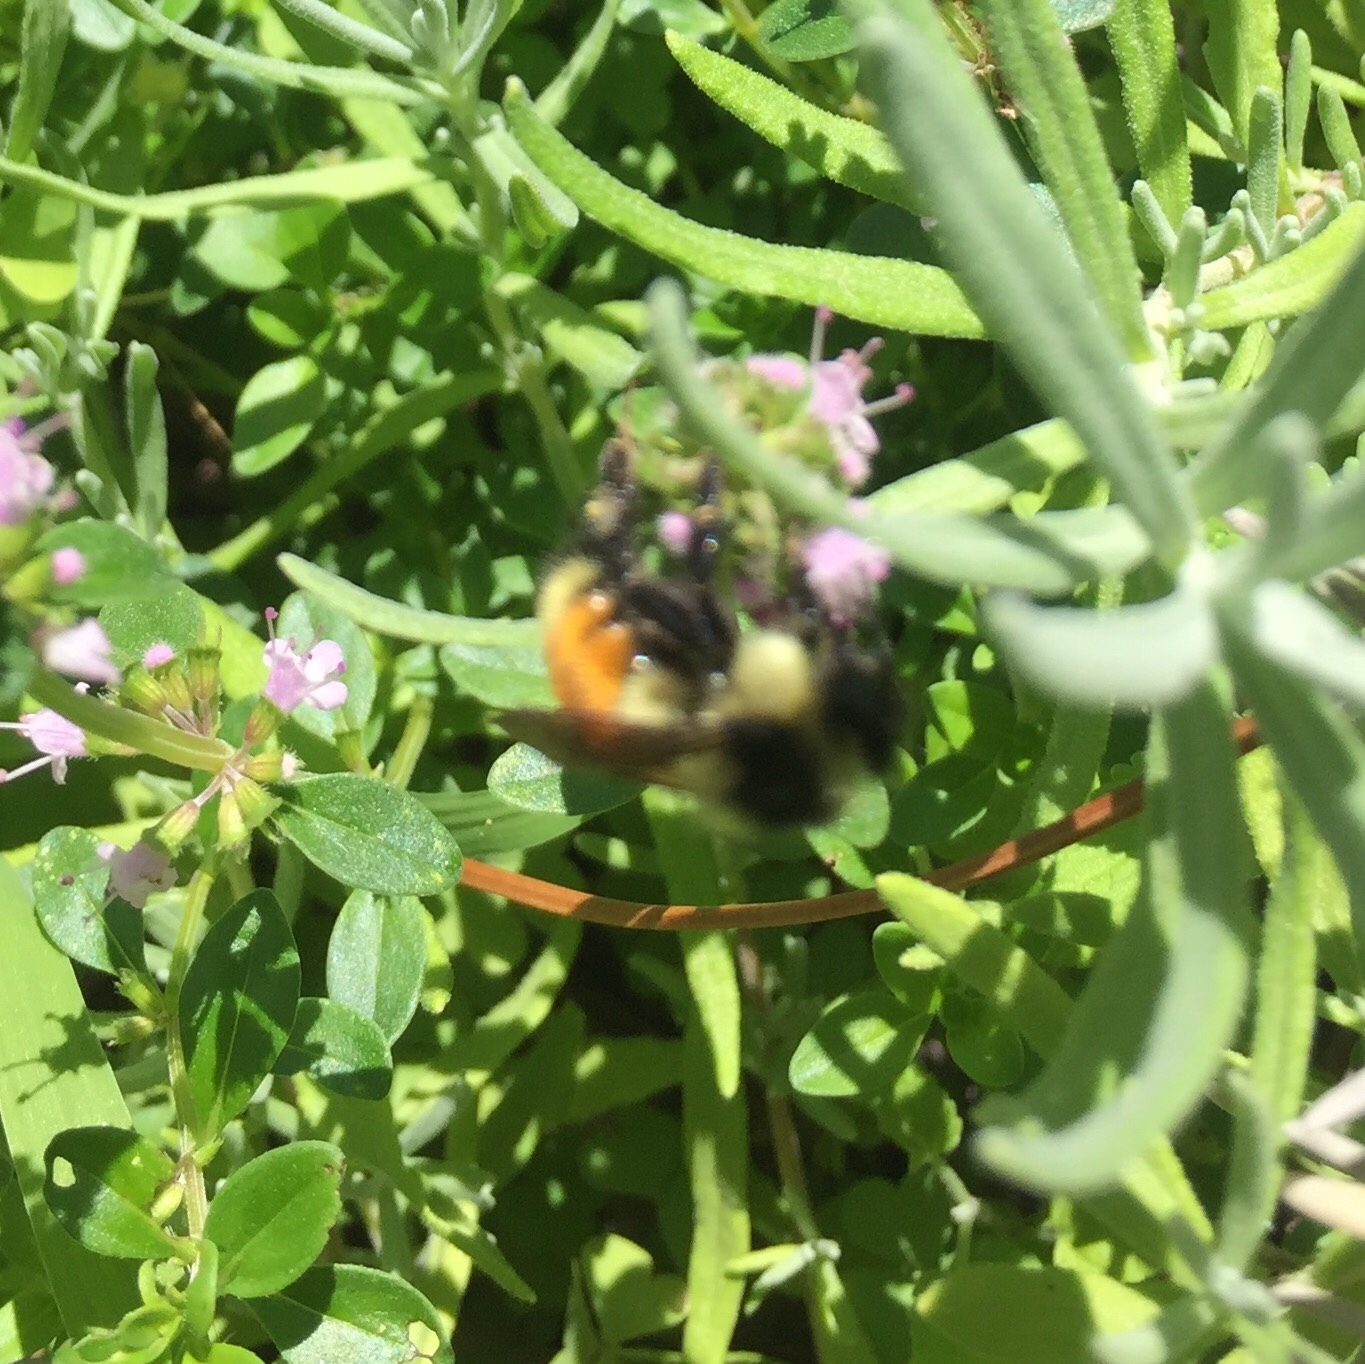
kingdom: Animalia
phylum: Arthropoda
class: Insecta
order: Hymenoptera
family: Apidae
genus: Bombus
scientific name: Bombus ternarius
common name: Tri-colored bumble bee
